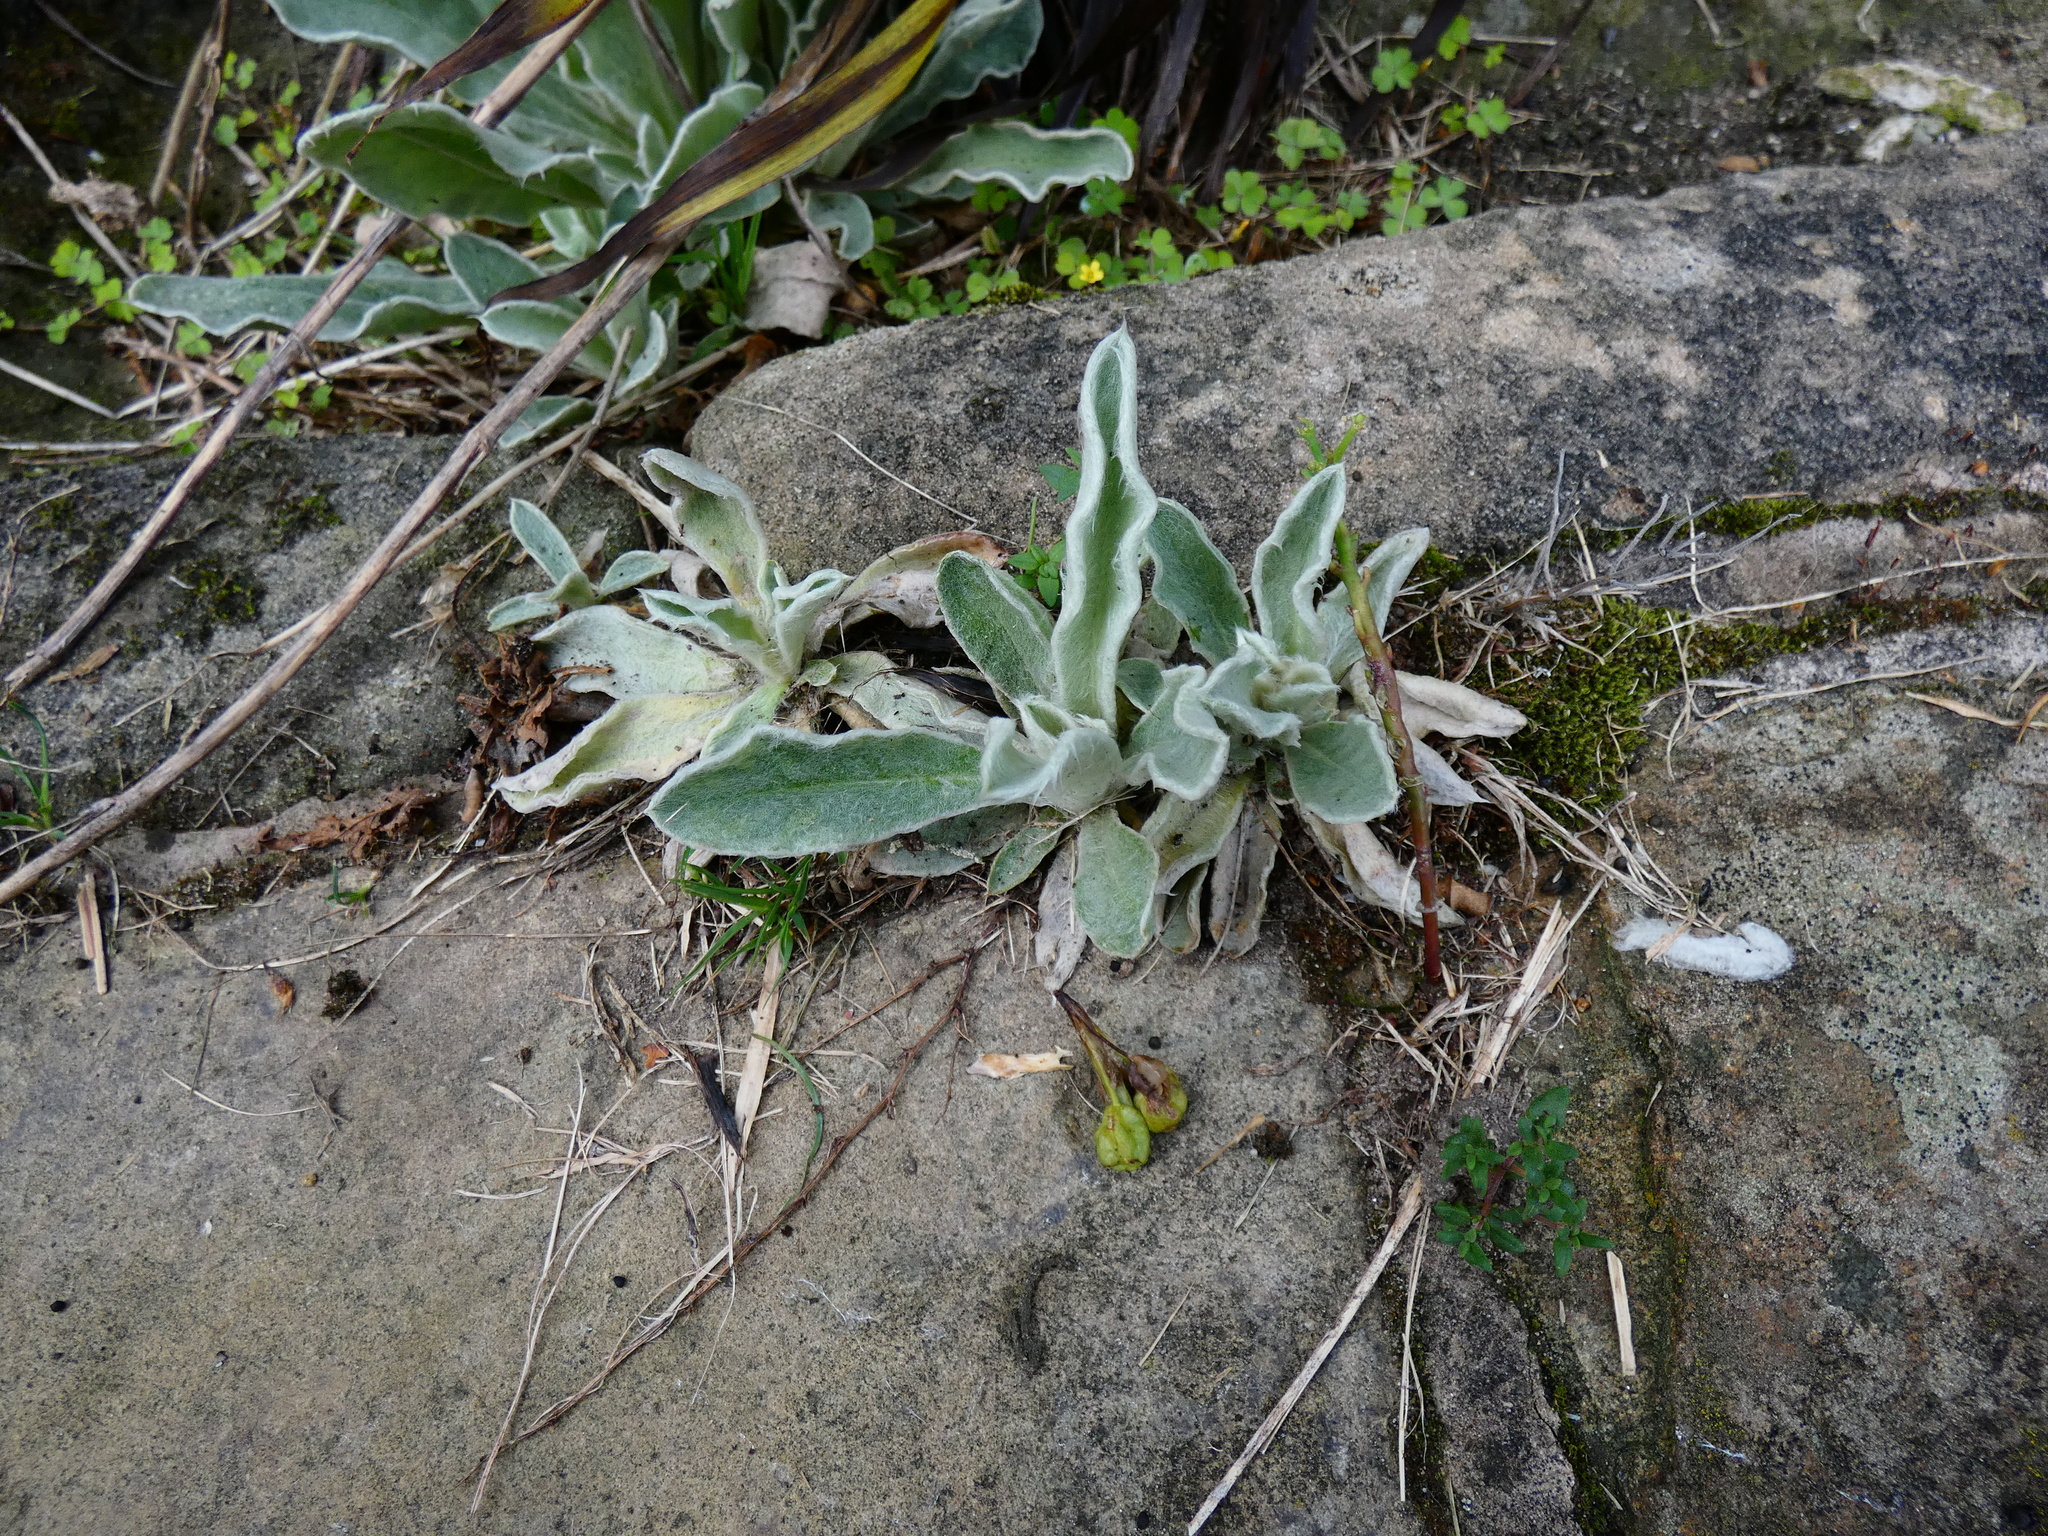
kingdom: Plantae
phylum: Tracheophyta
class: Magnoliopsida
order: Caryophyllales
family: Caryophyllaceae
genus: Silene
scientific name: Silene coronaria
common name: Rose campion
